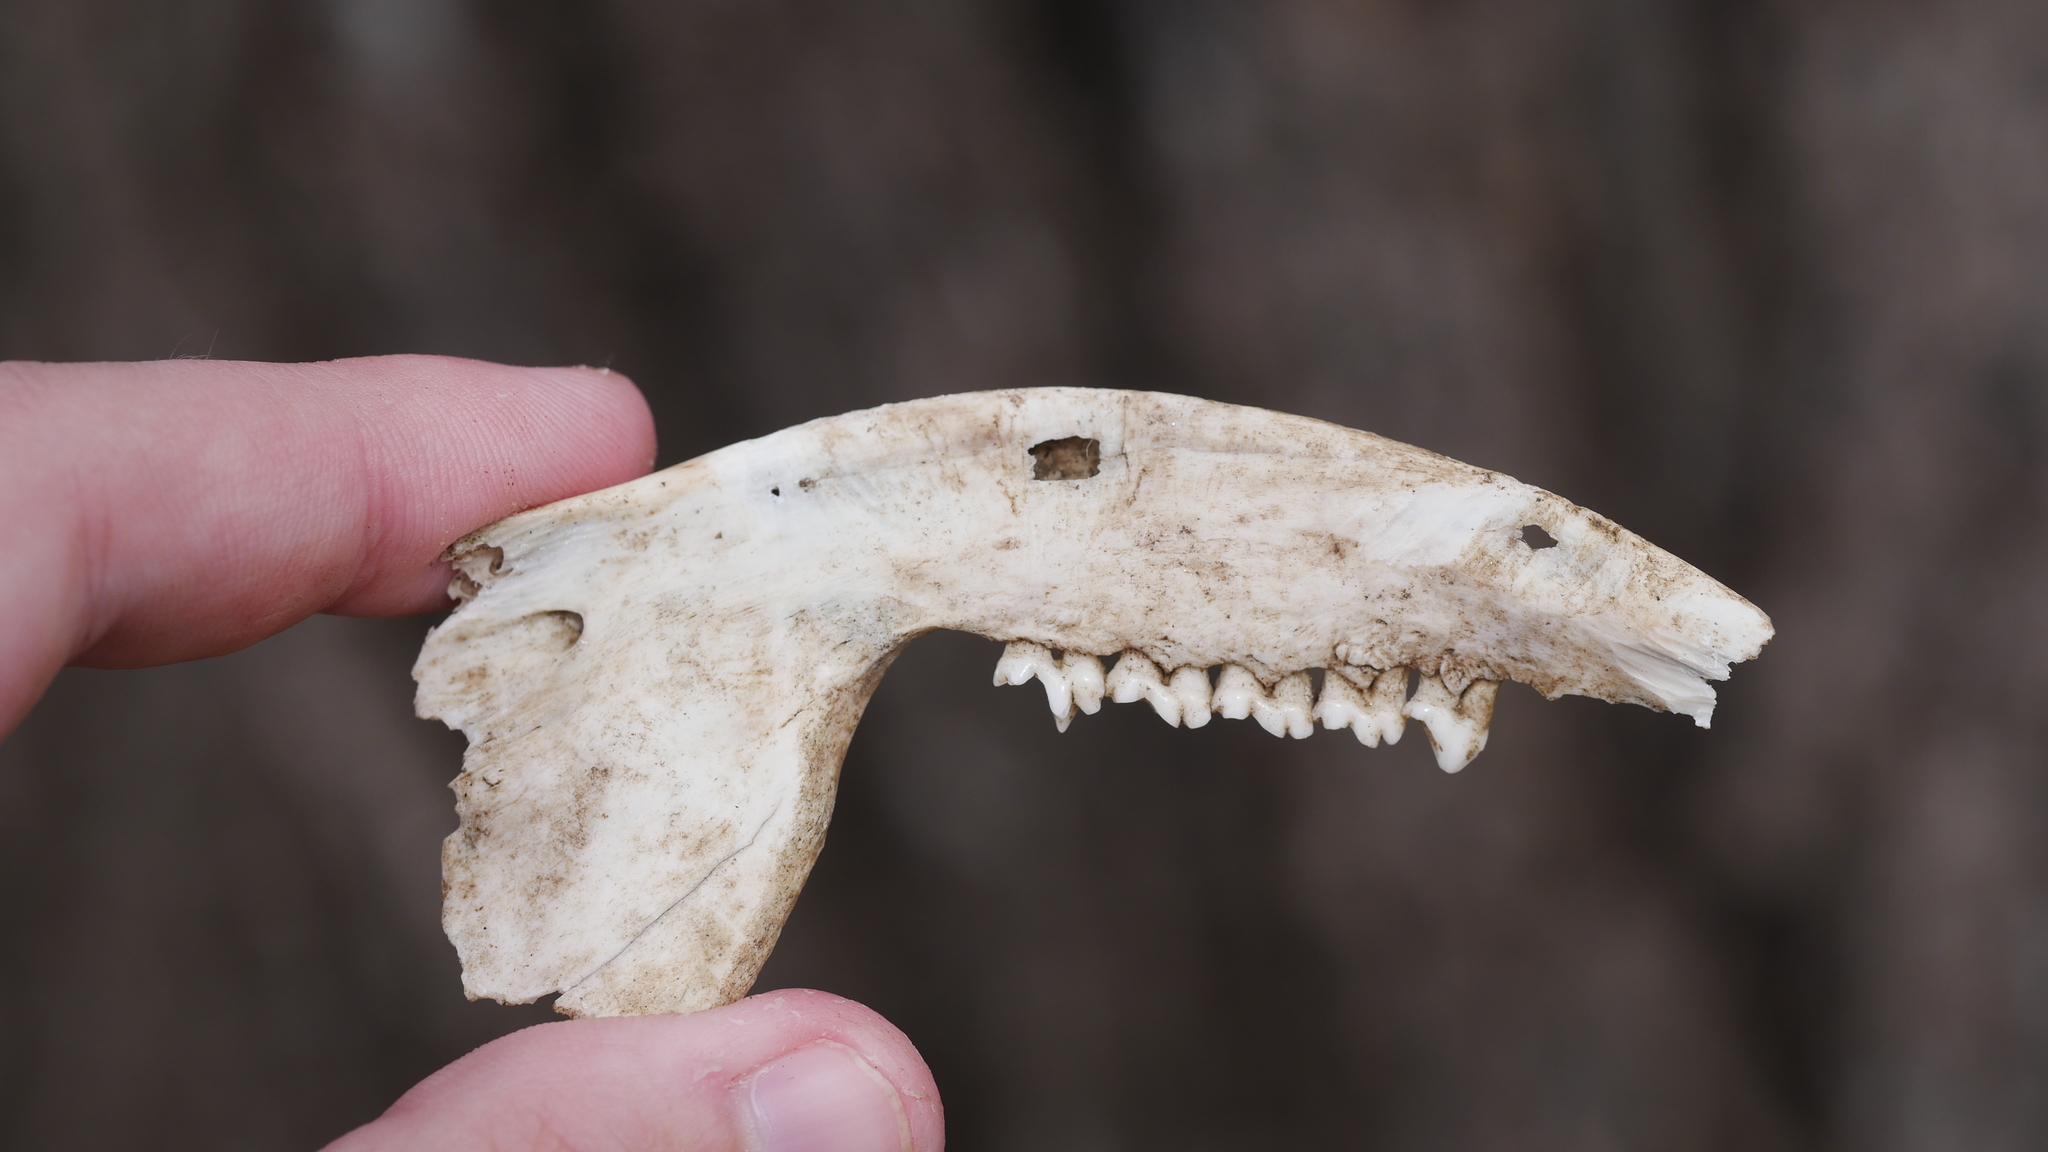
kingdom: Animalia
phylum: Chordata
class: Mammalia
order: Didelphimorphia
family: Didelphidae
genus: Didelphis
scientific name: Didelphis virginiana
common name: Virginia opossum
